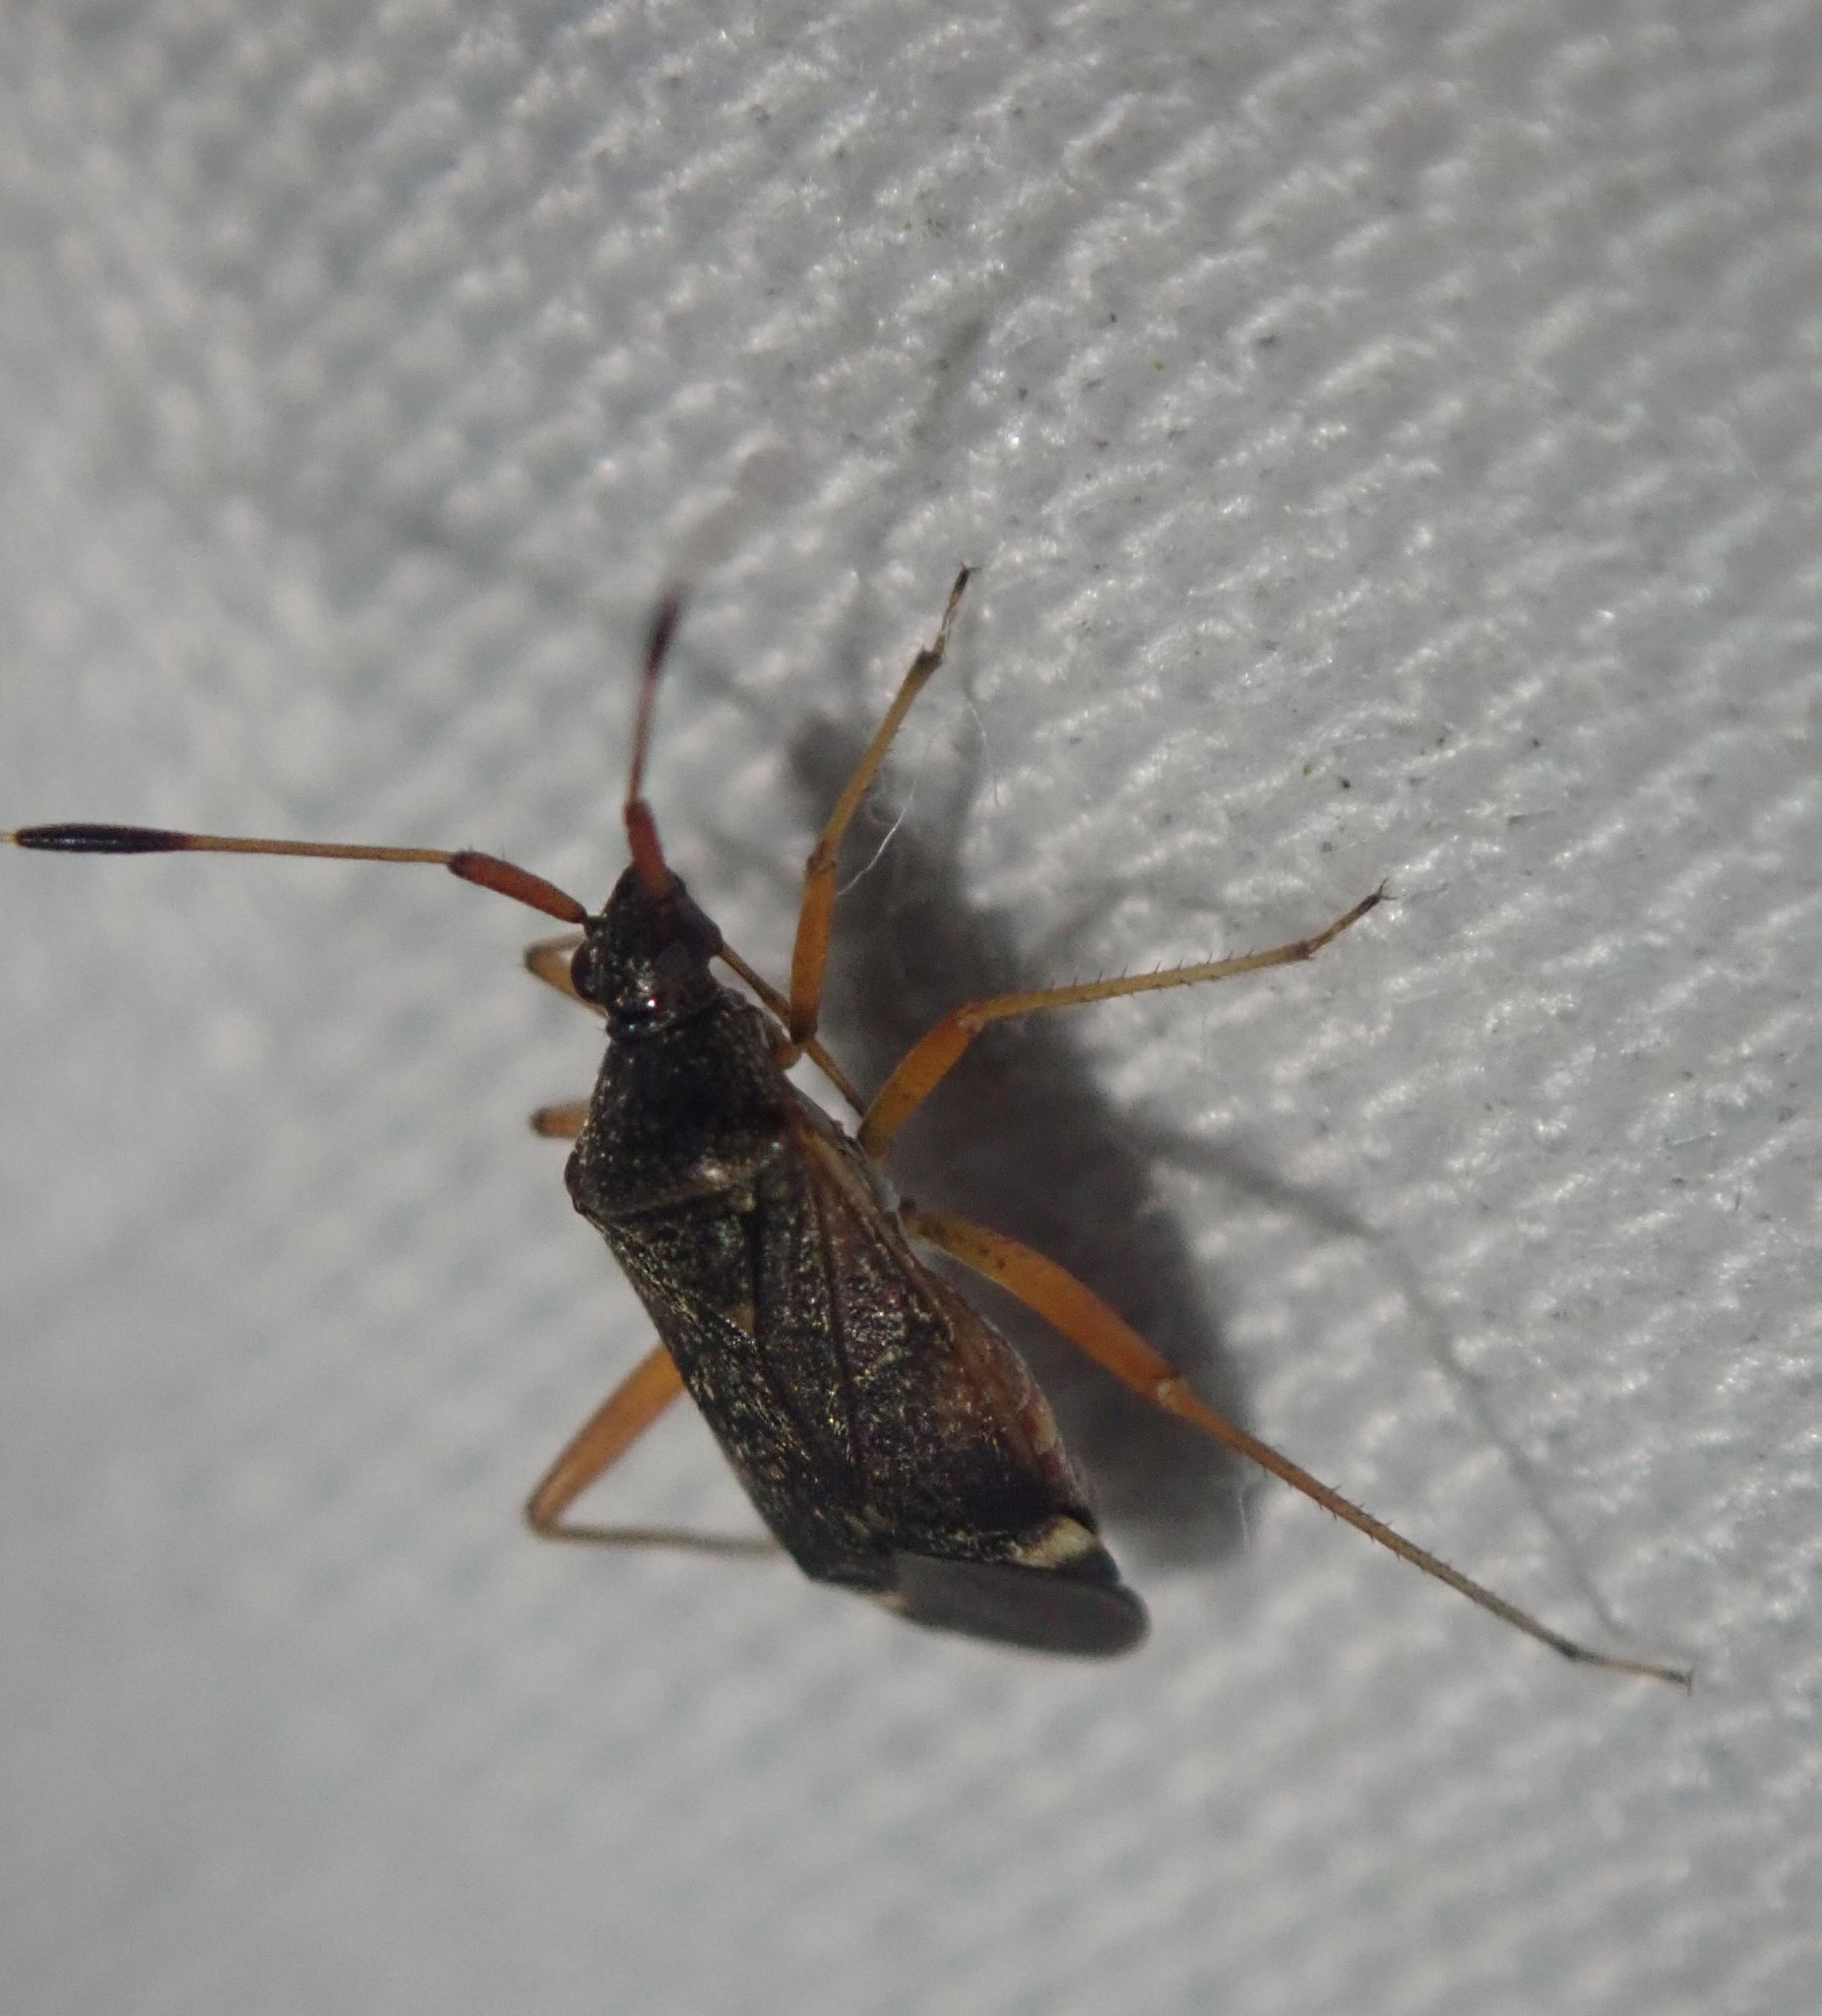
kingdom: Animalia
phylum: Arthropoda
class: Insecta
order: Hemiptera
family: Miridae
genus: Closterotomus
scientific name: Closterotomus biclavatus
